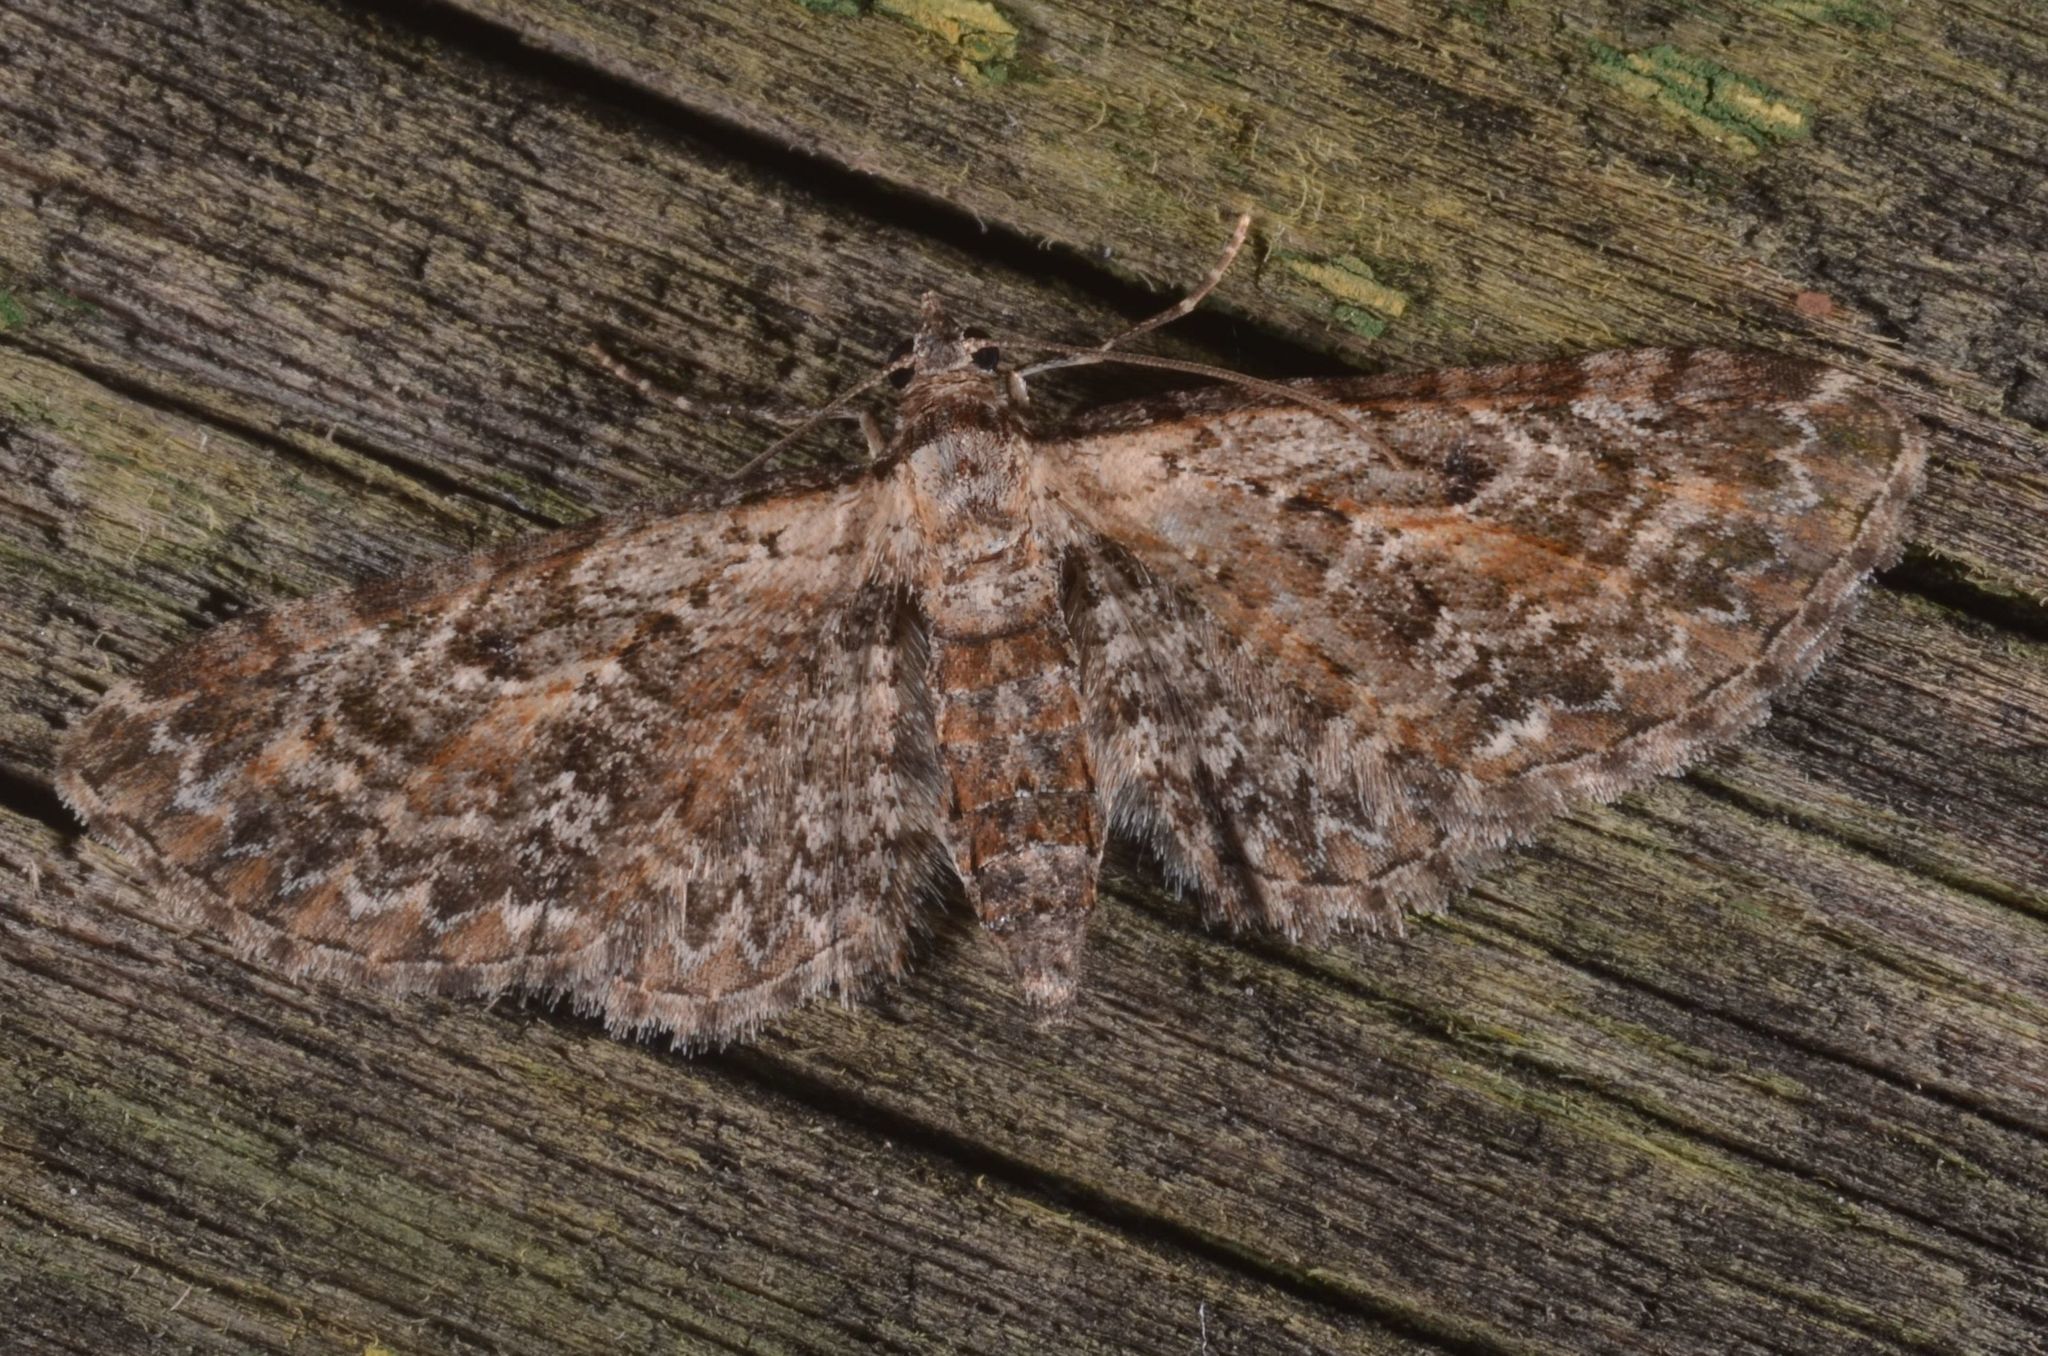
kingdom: Animalia
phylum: Arthropoda
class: Insecta
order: Lepidoptera
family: Geometridae
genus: Eupithecia
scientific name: Eupithecia icterata
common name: Tawny speckled pug
